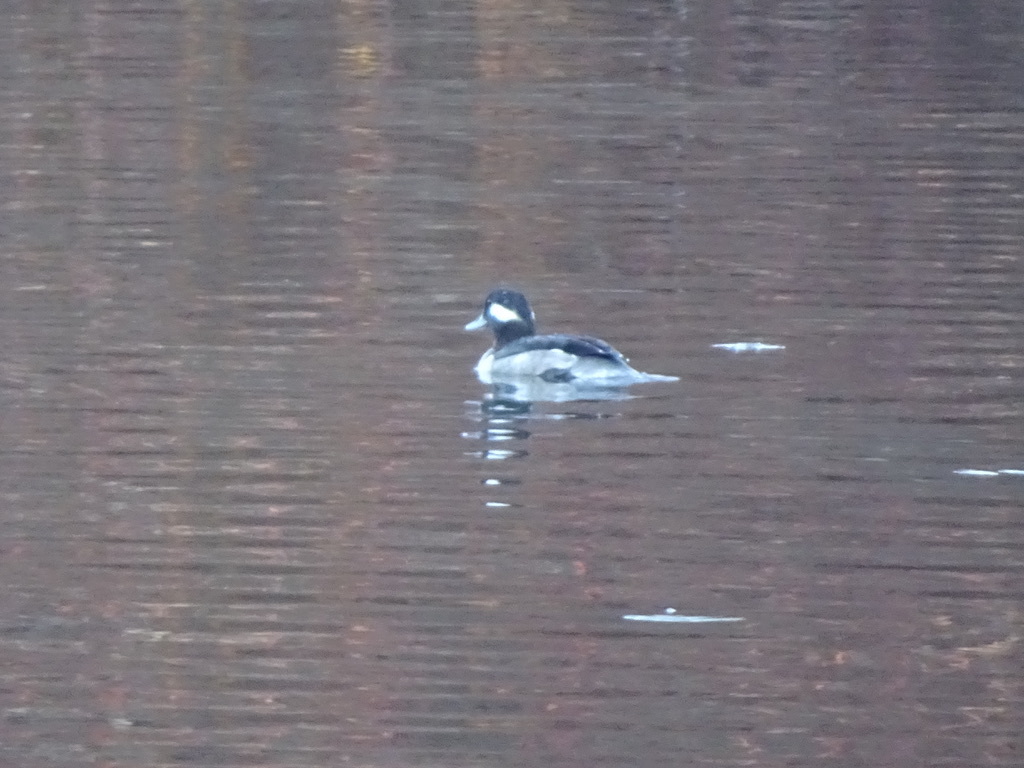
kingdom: Animalia
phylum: Chordata
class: Aves
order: Anseriformes
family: Anatidae
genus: Bucephala
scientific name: Bucephala albeola
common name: Bufflehead
